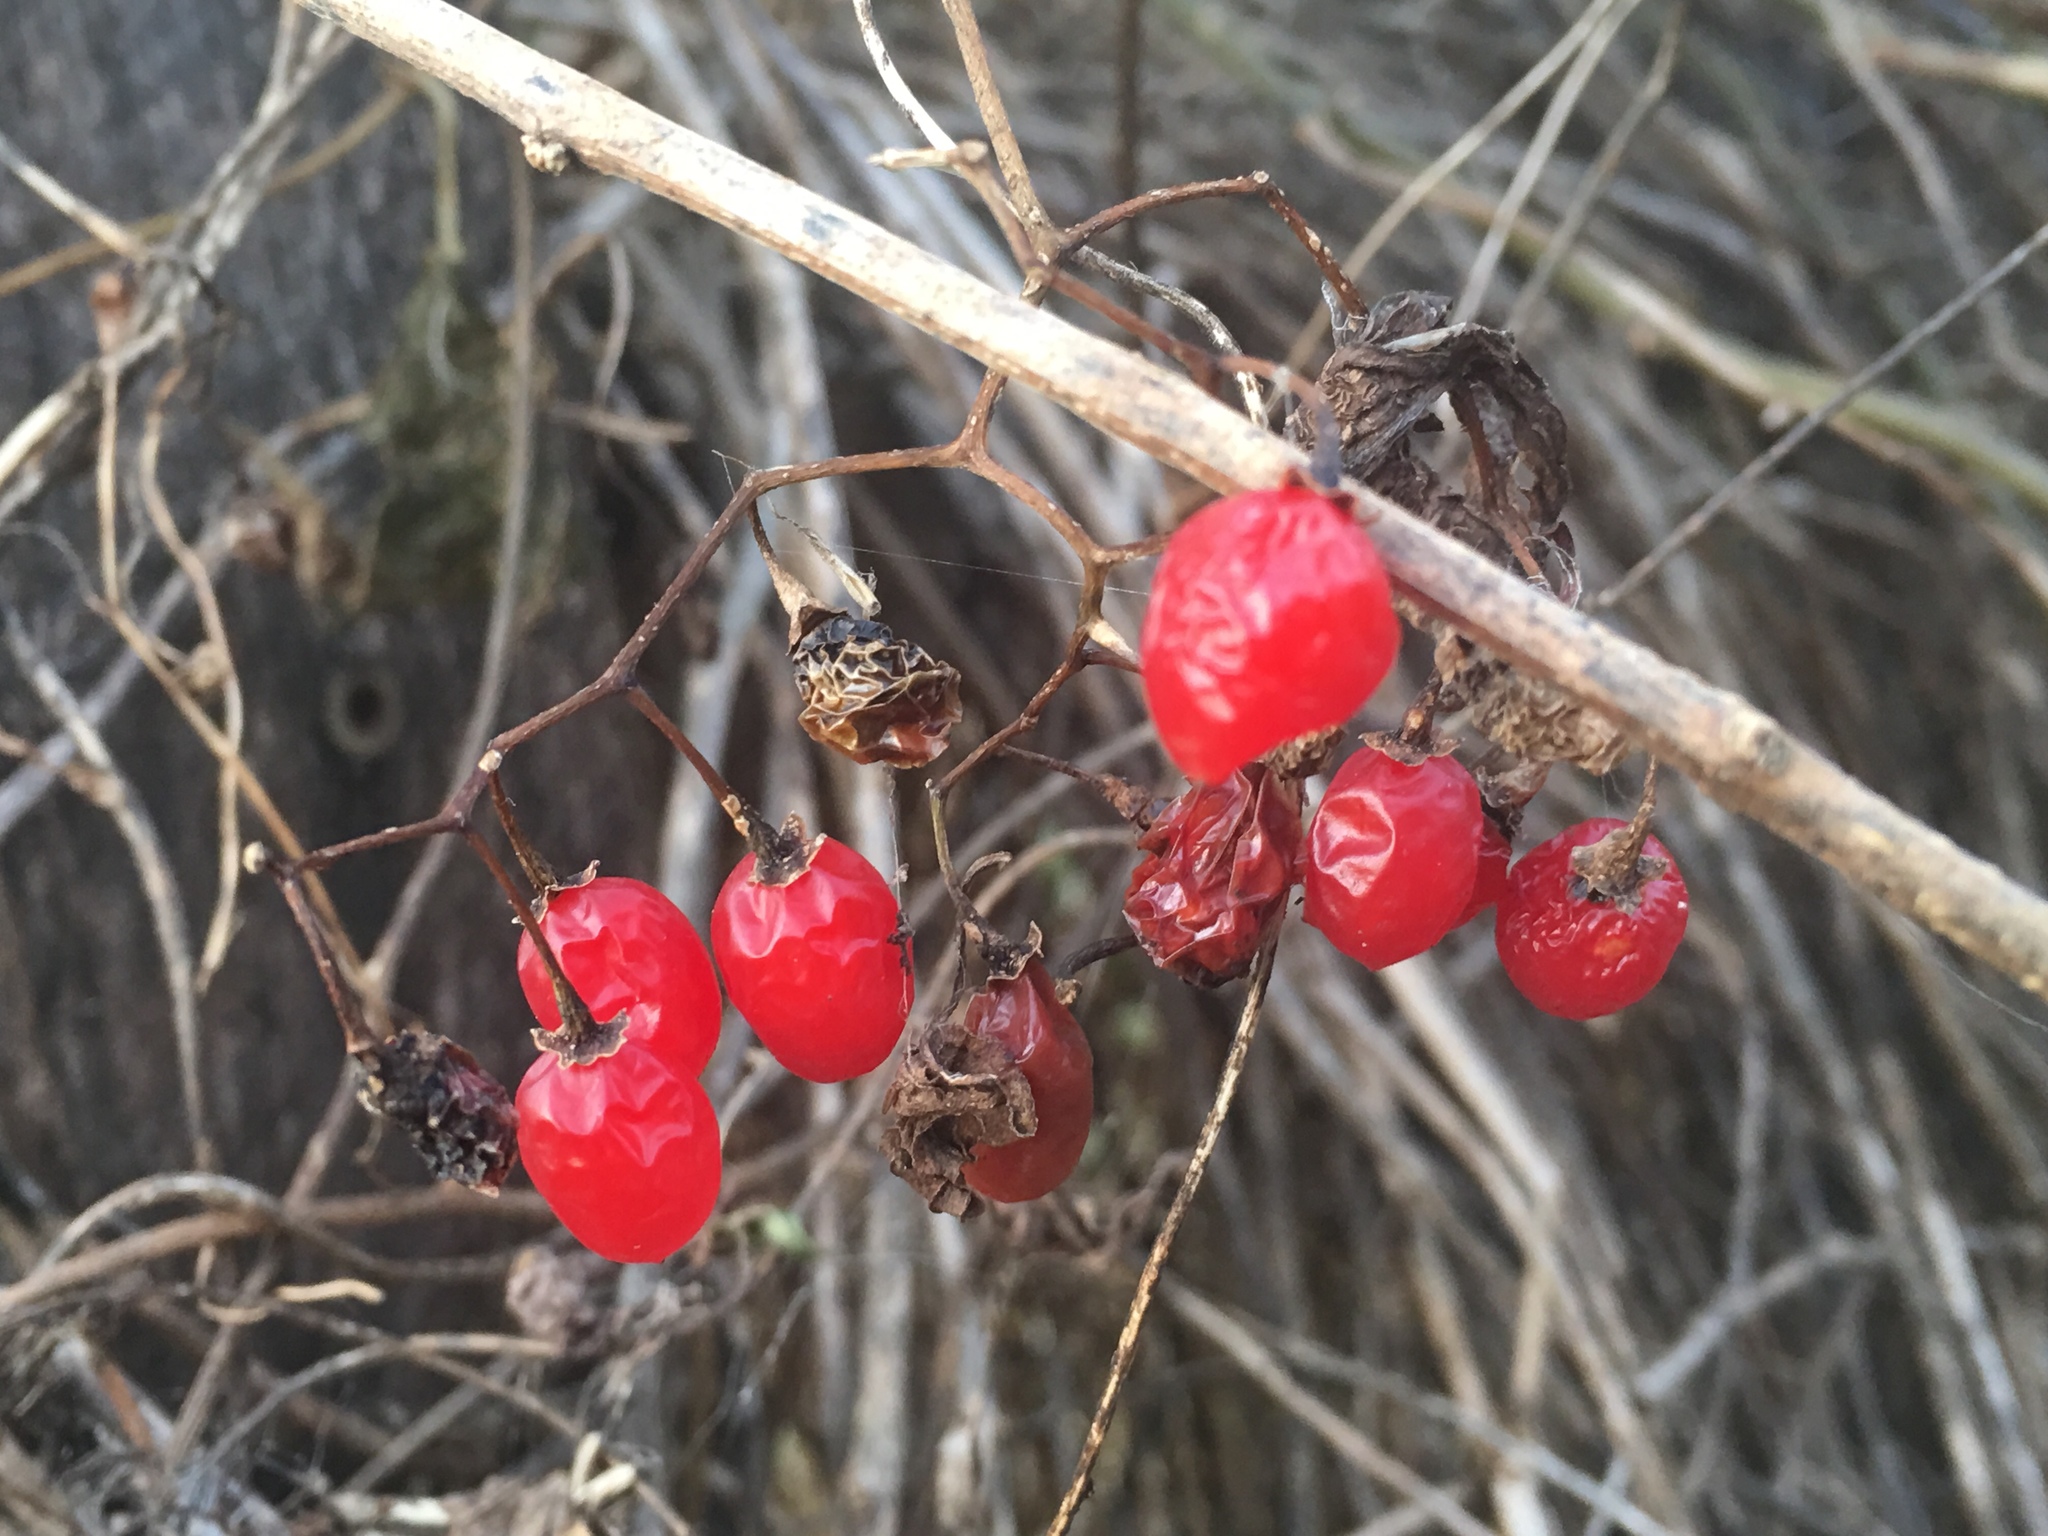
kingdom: Plantae
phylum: Tracheophyta
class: Magnoliopsida
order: Solanales
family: Solanaceae
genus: Solanum
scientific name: Solanum dulcamara
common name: Climbing nightshade
